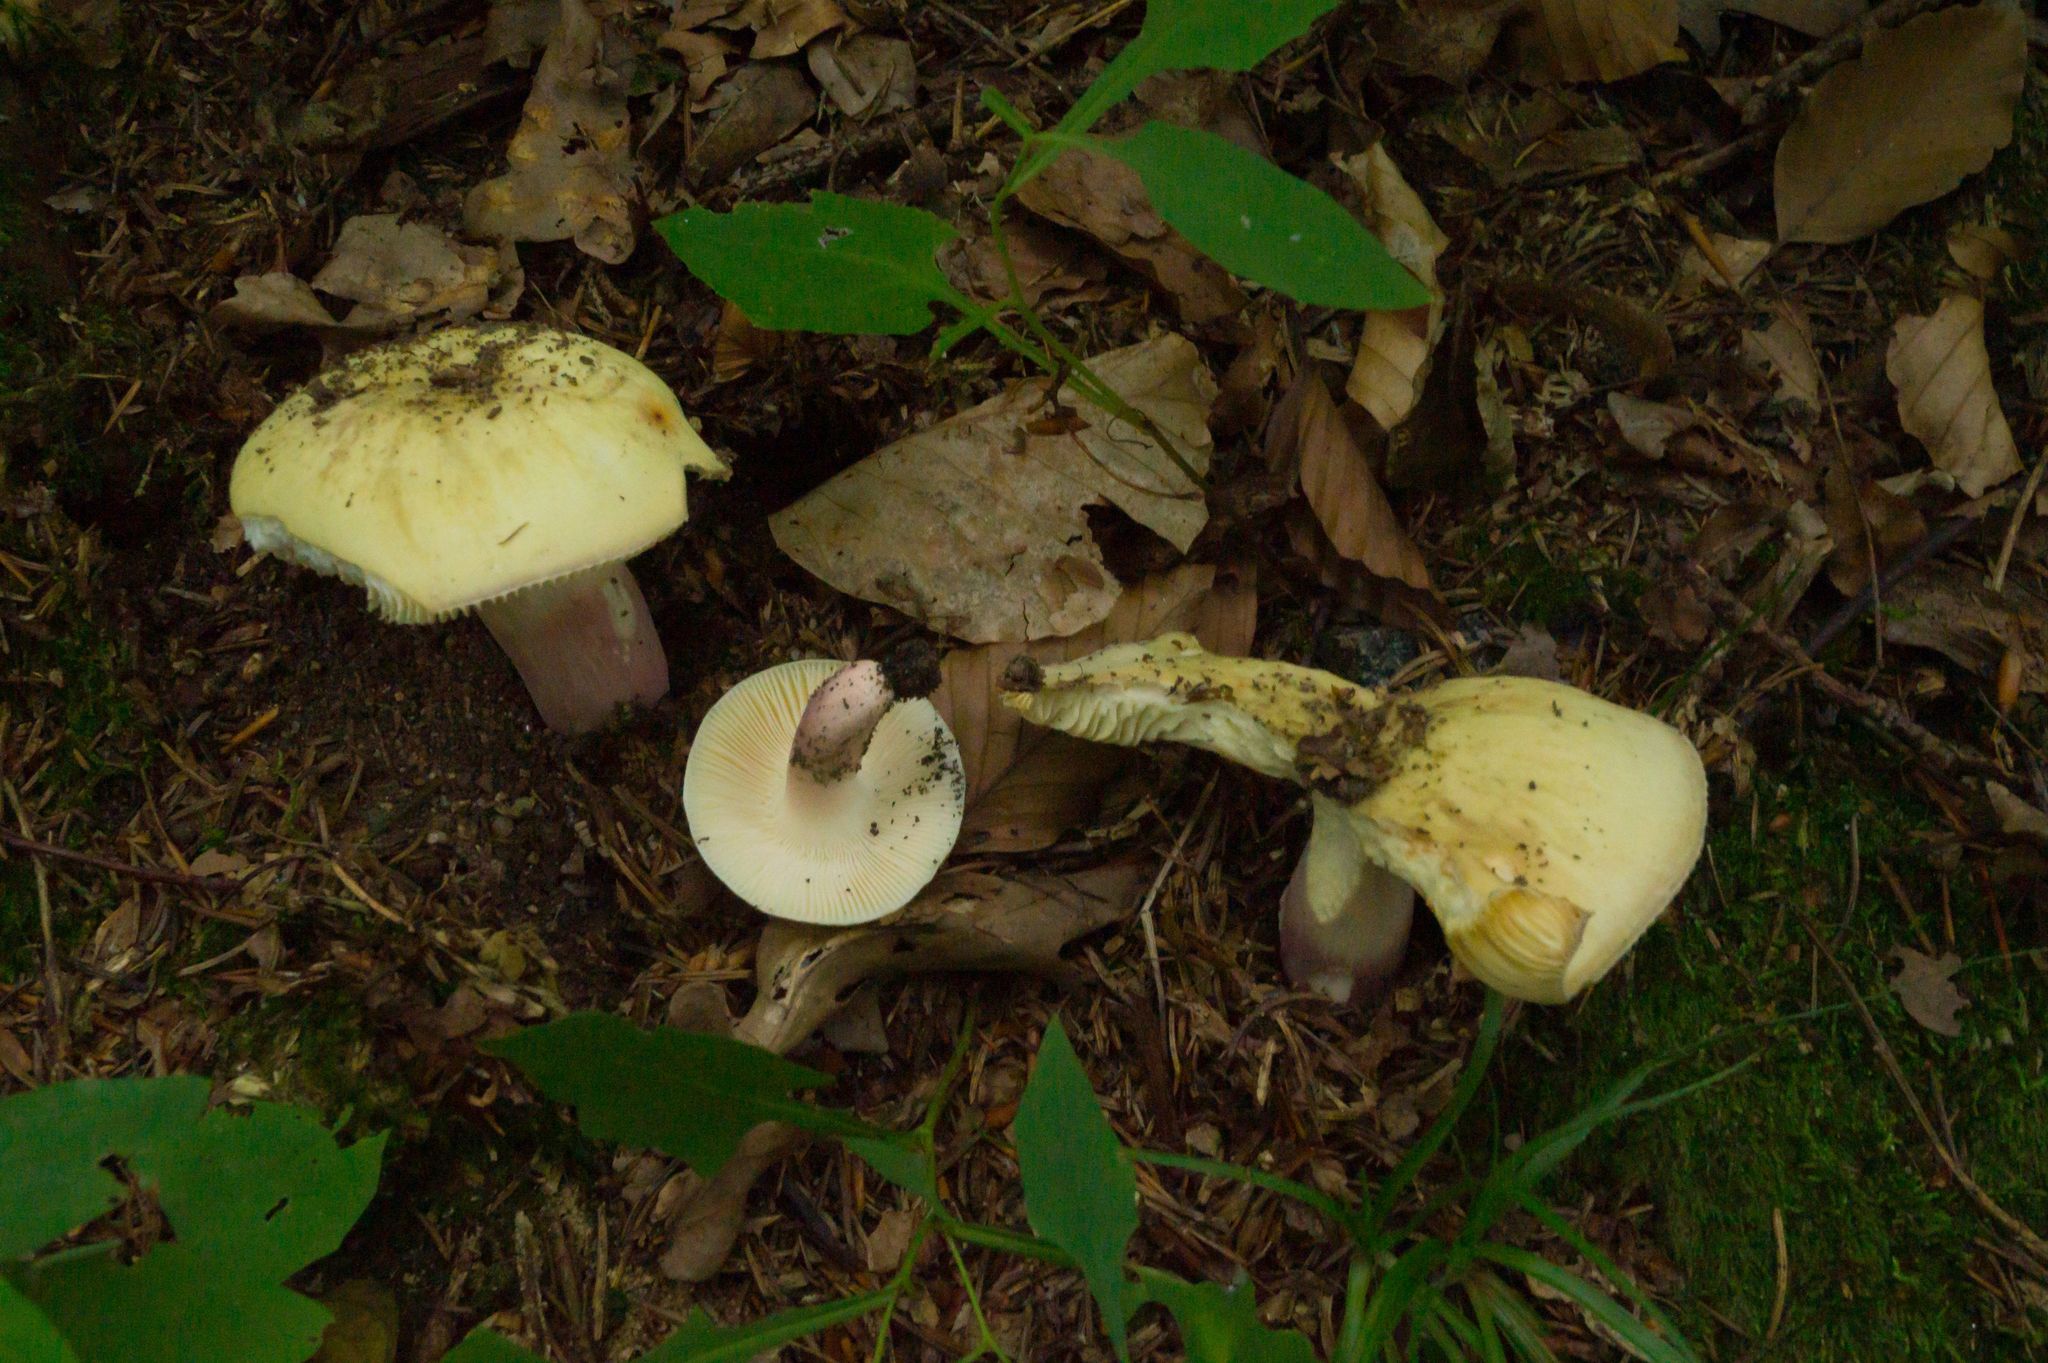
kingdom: Fungi
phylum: Basidiomycota
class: Agaricomycetes
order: Russulales
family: Russulaceae
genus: Russula
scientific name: Russula violeipes
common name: Velvet brittlegill
